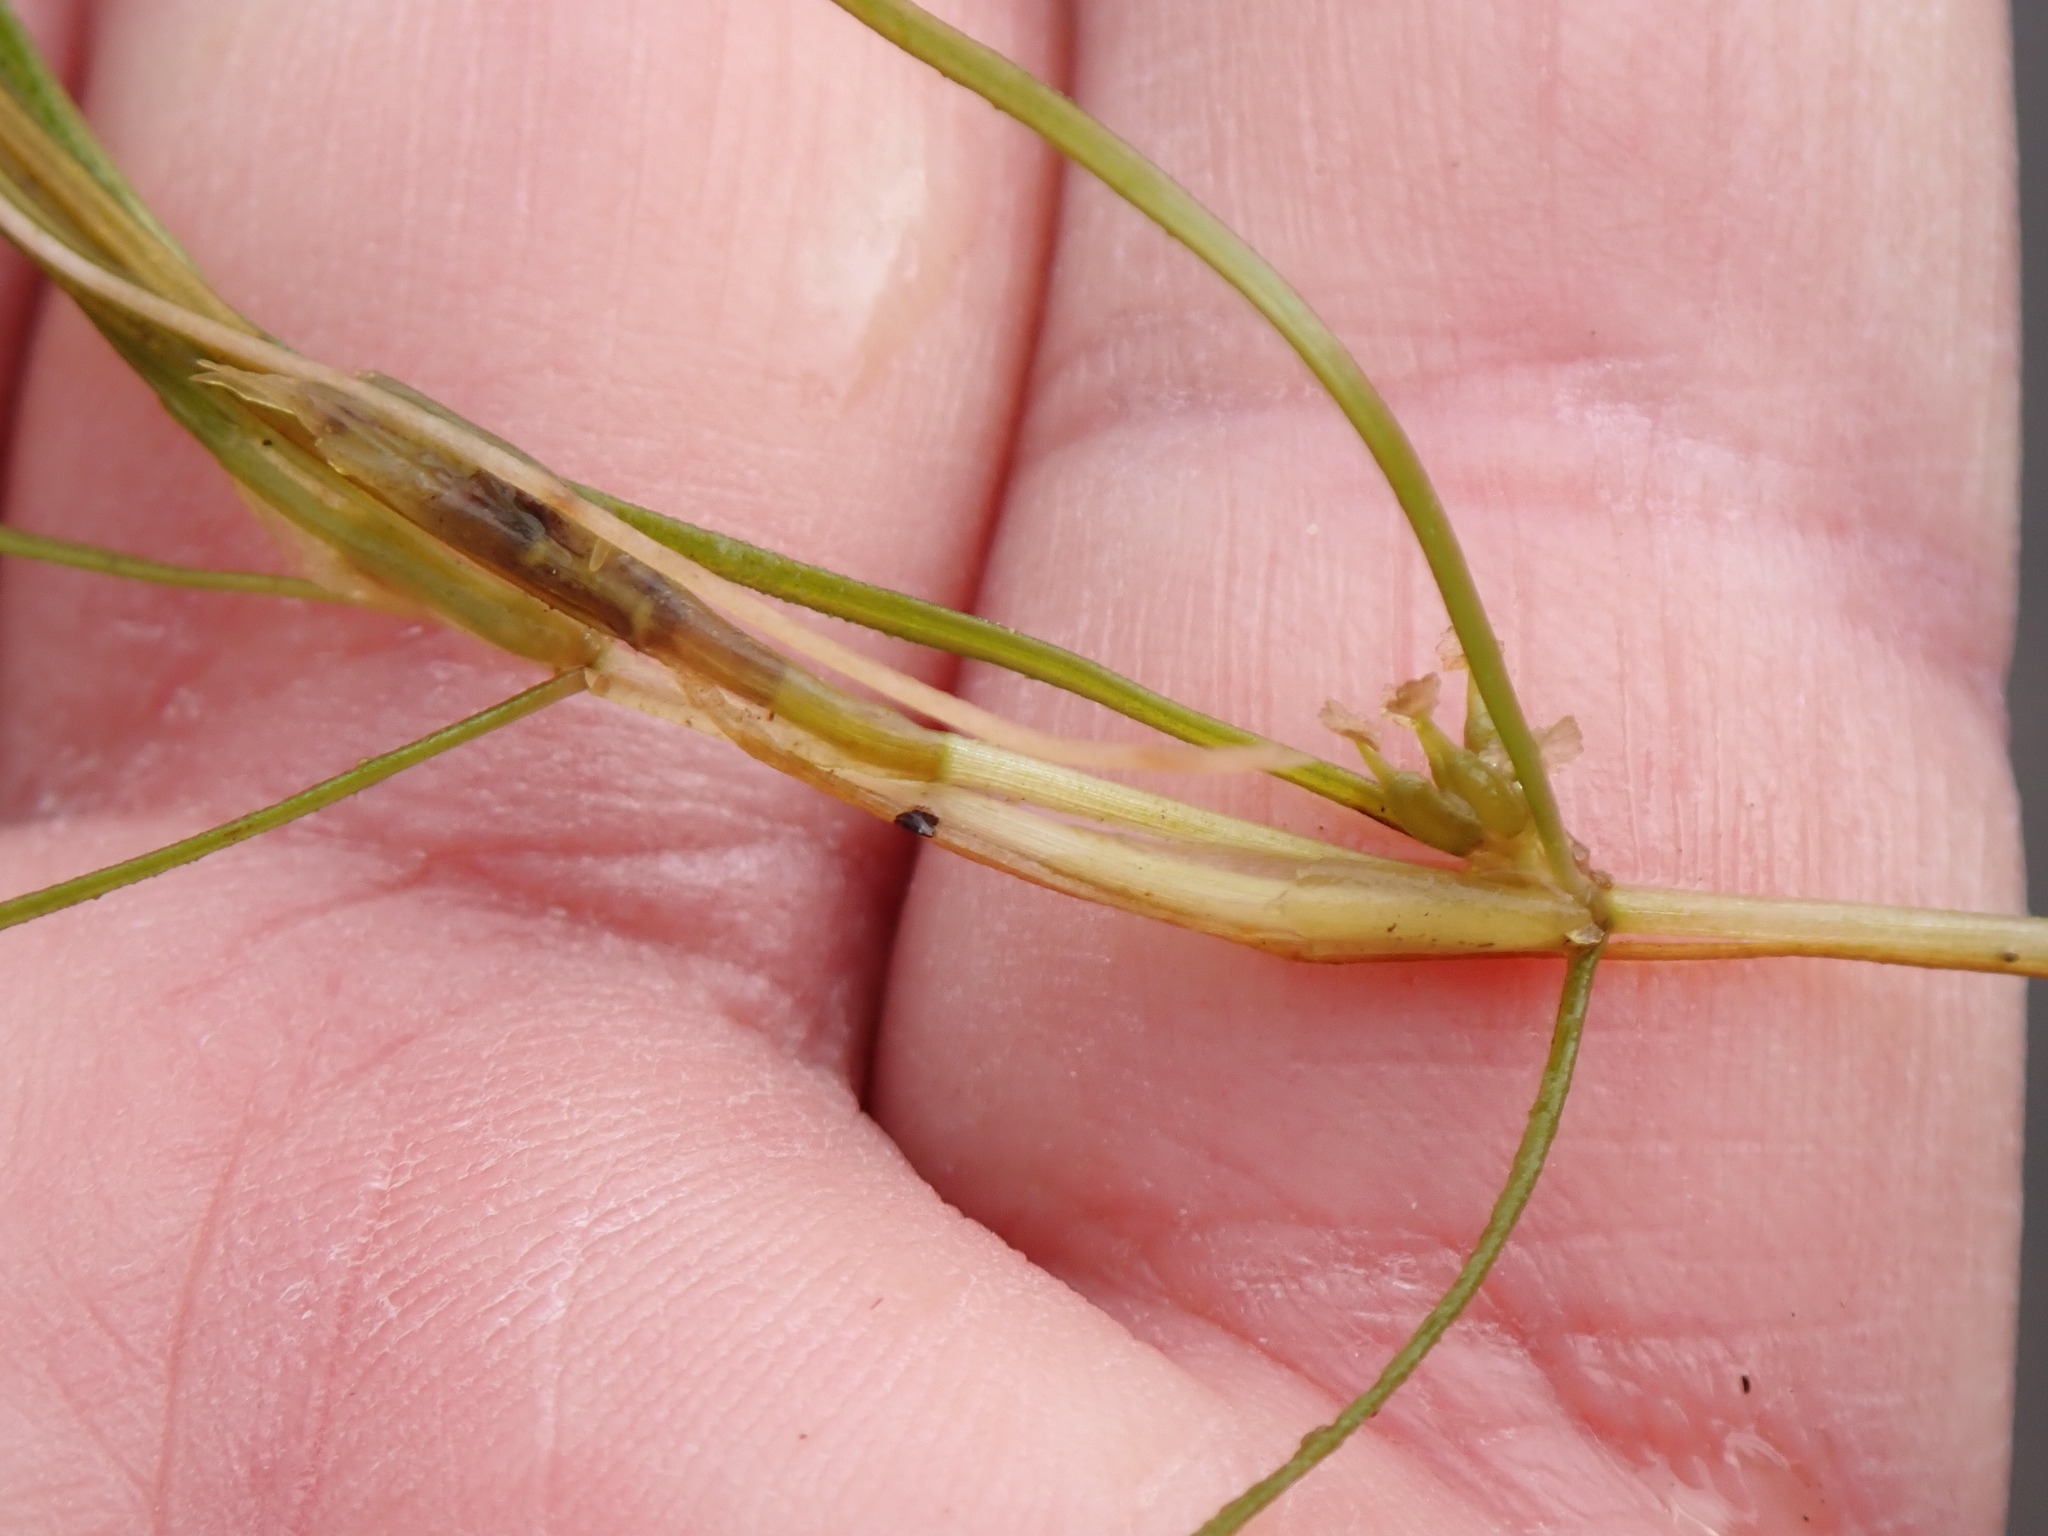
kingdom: Plantae
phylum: Tracheophyta
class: Liliopsida
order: Alismatales
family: Potamogetonaceae
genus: Zannichellia
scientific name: Zannichellia palustris
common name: Horned pondweed
